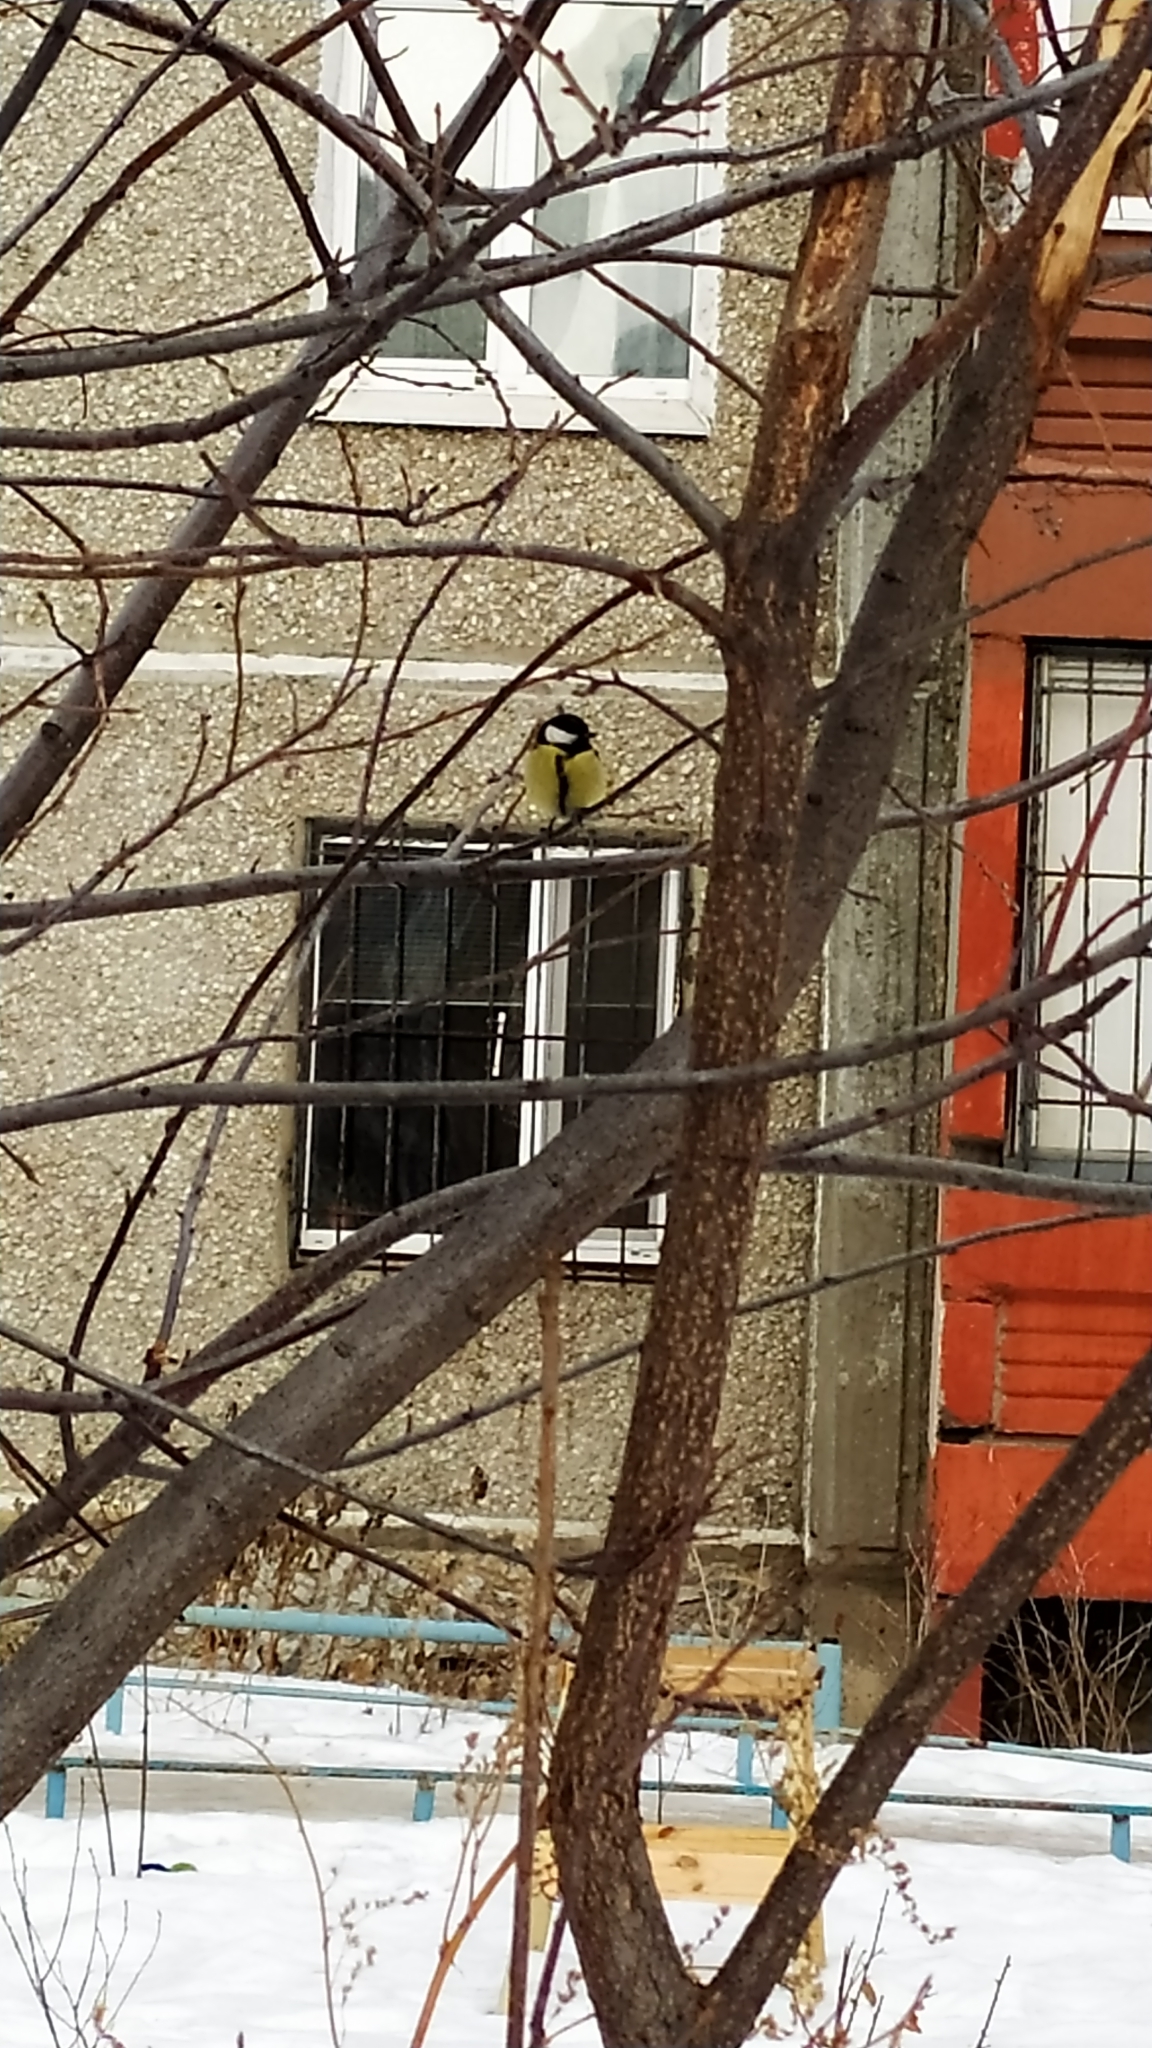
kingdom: Animalia
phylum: Chordata
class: Aves
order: Passeriformes
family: Paridae
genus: Parus
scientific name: Parus major
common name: Great tit
